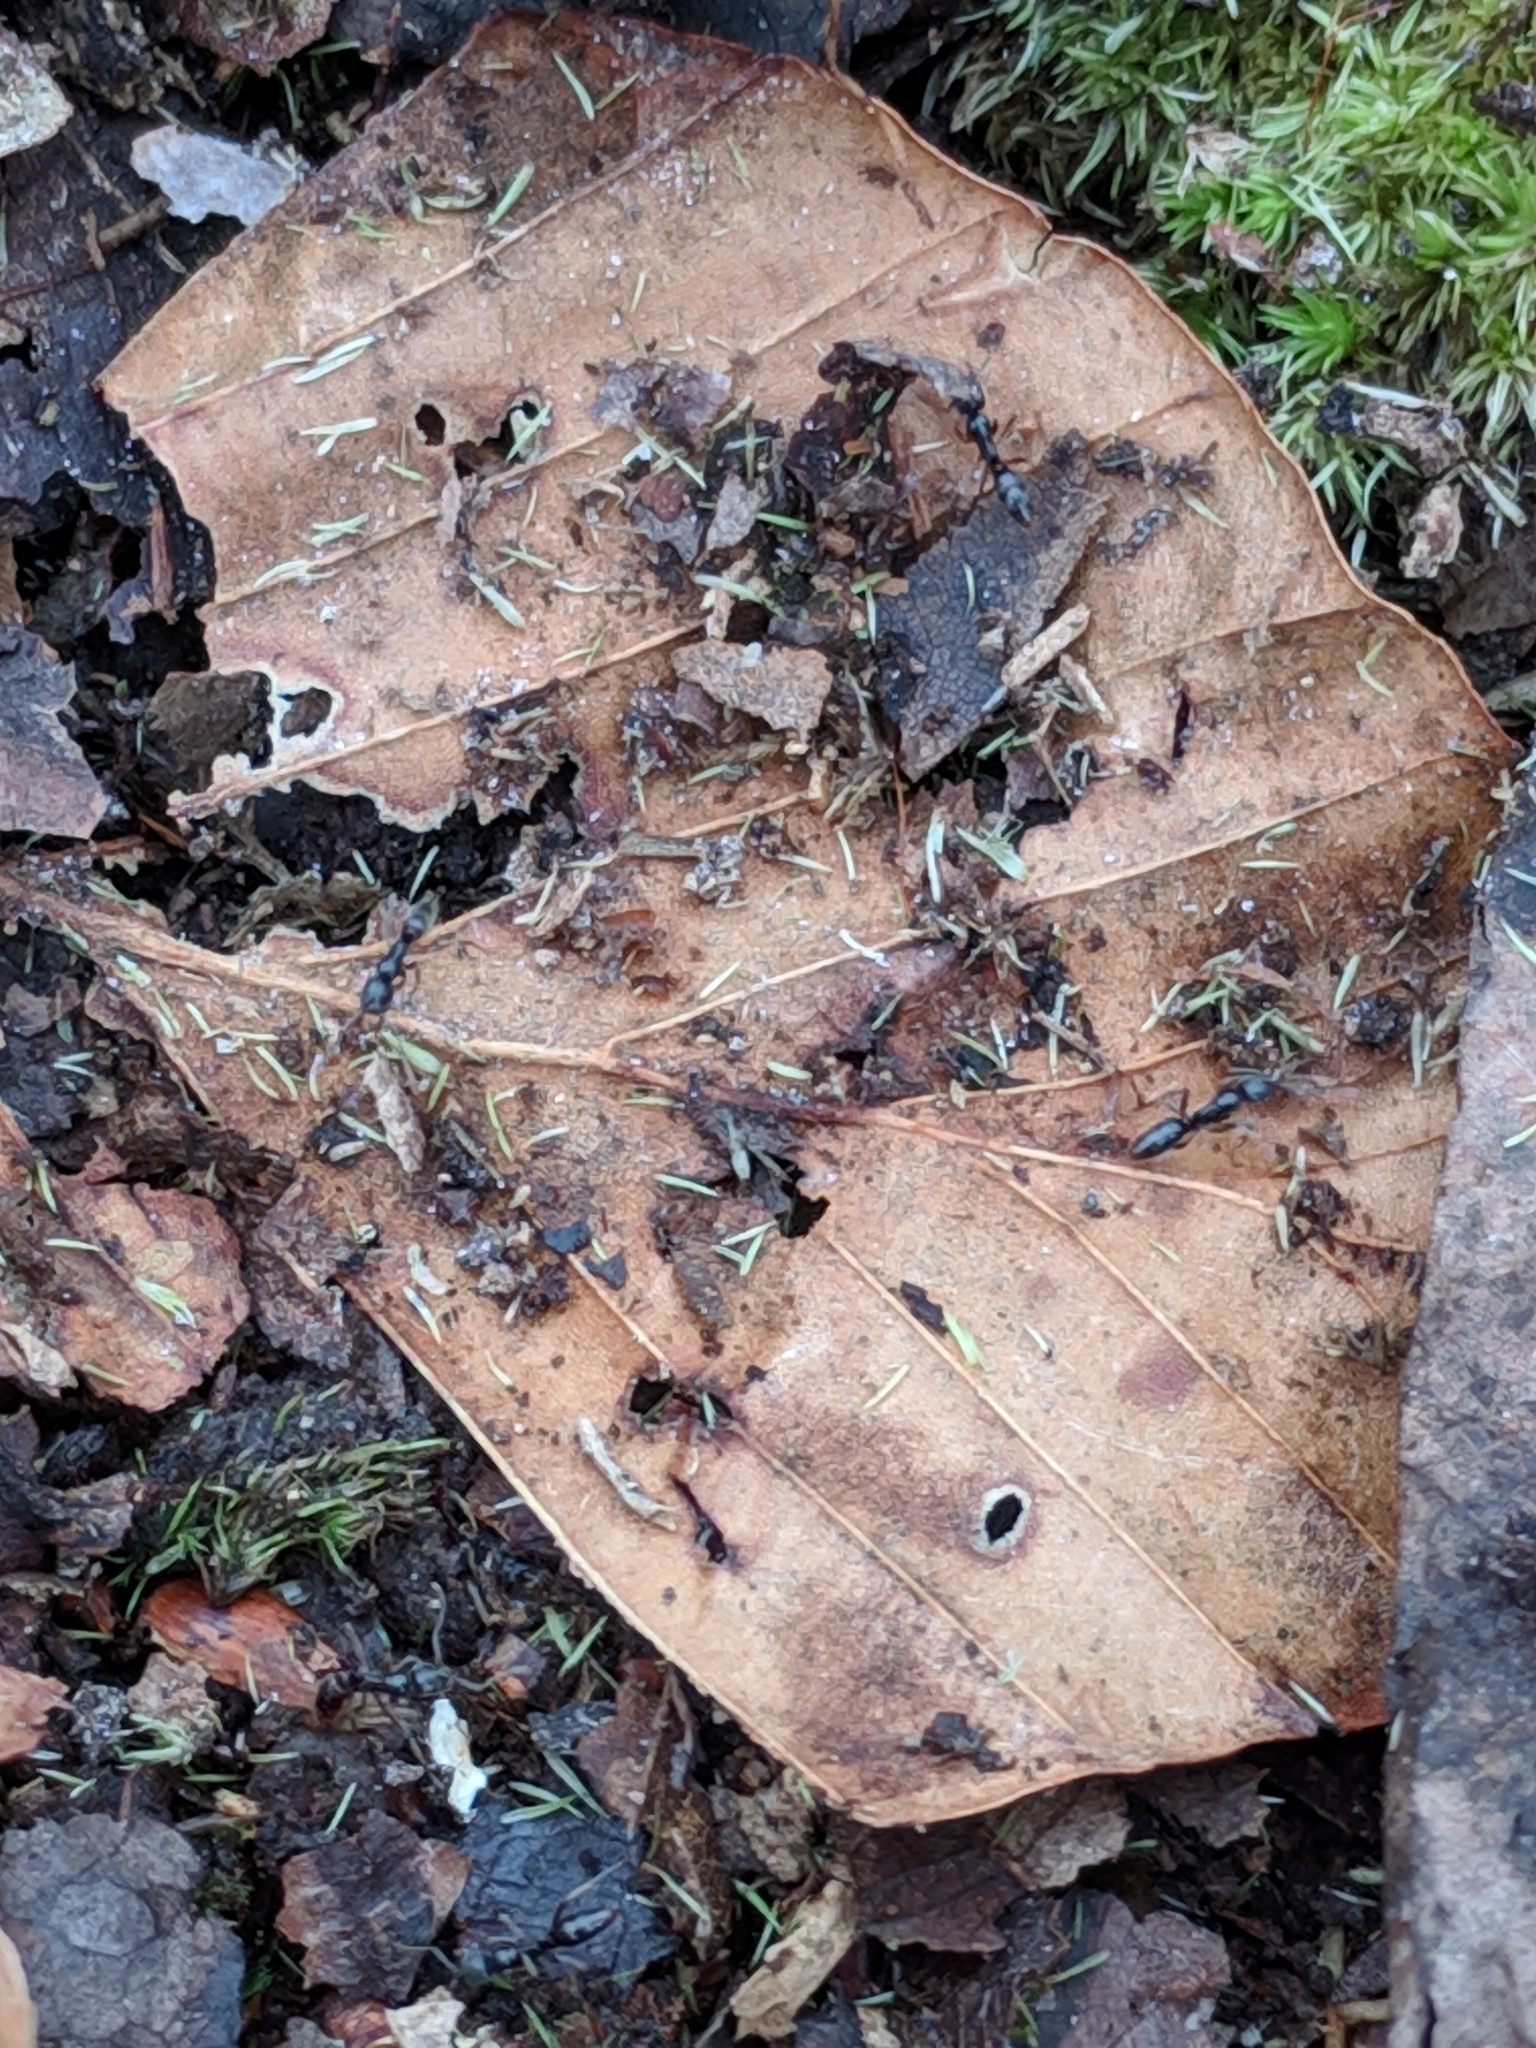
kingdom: Animalia
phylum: Arthropoda
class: Insecta
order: Hymenoptera
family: Formicidae
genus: Pachycondyla
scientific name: Pachycondyla chinensis
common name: Asian needle ant
